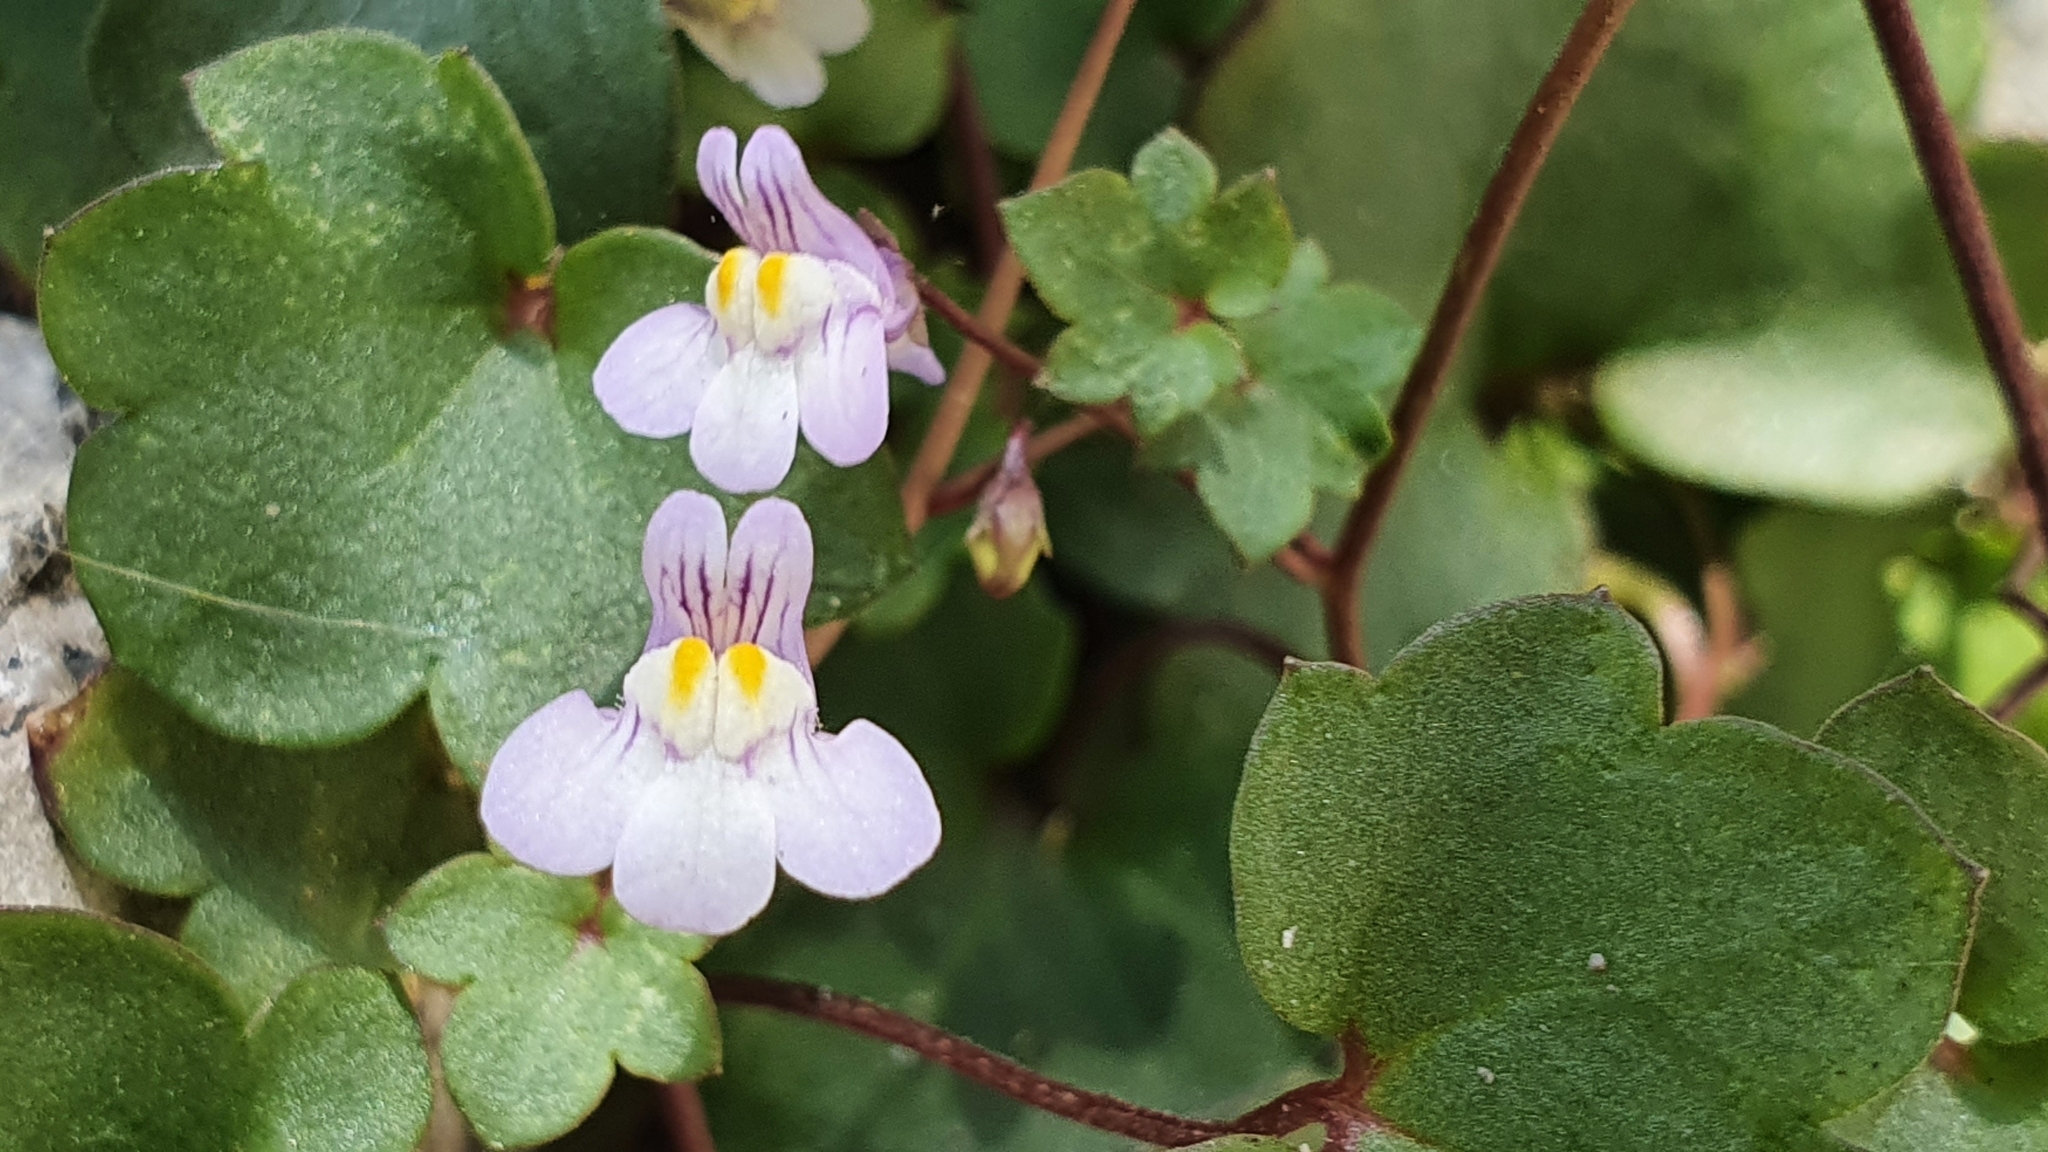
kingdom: Plantae
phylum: Tracheophyta
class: Magnoliopsida
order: Lamiales
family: Plantaginaceae
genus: Cymbalaria
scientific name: Cymbalaria muralis
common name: Ivy-leaved toadflax
